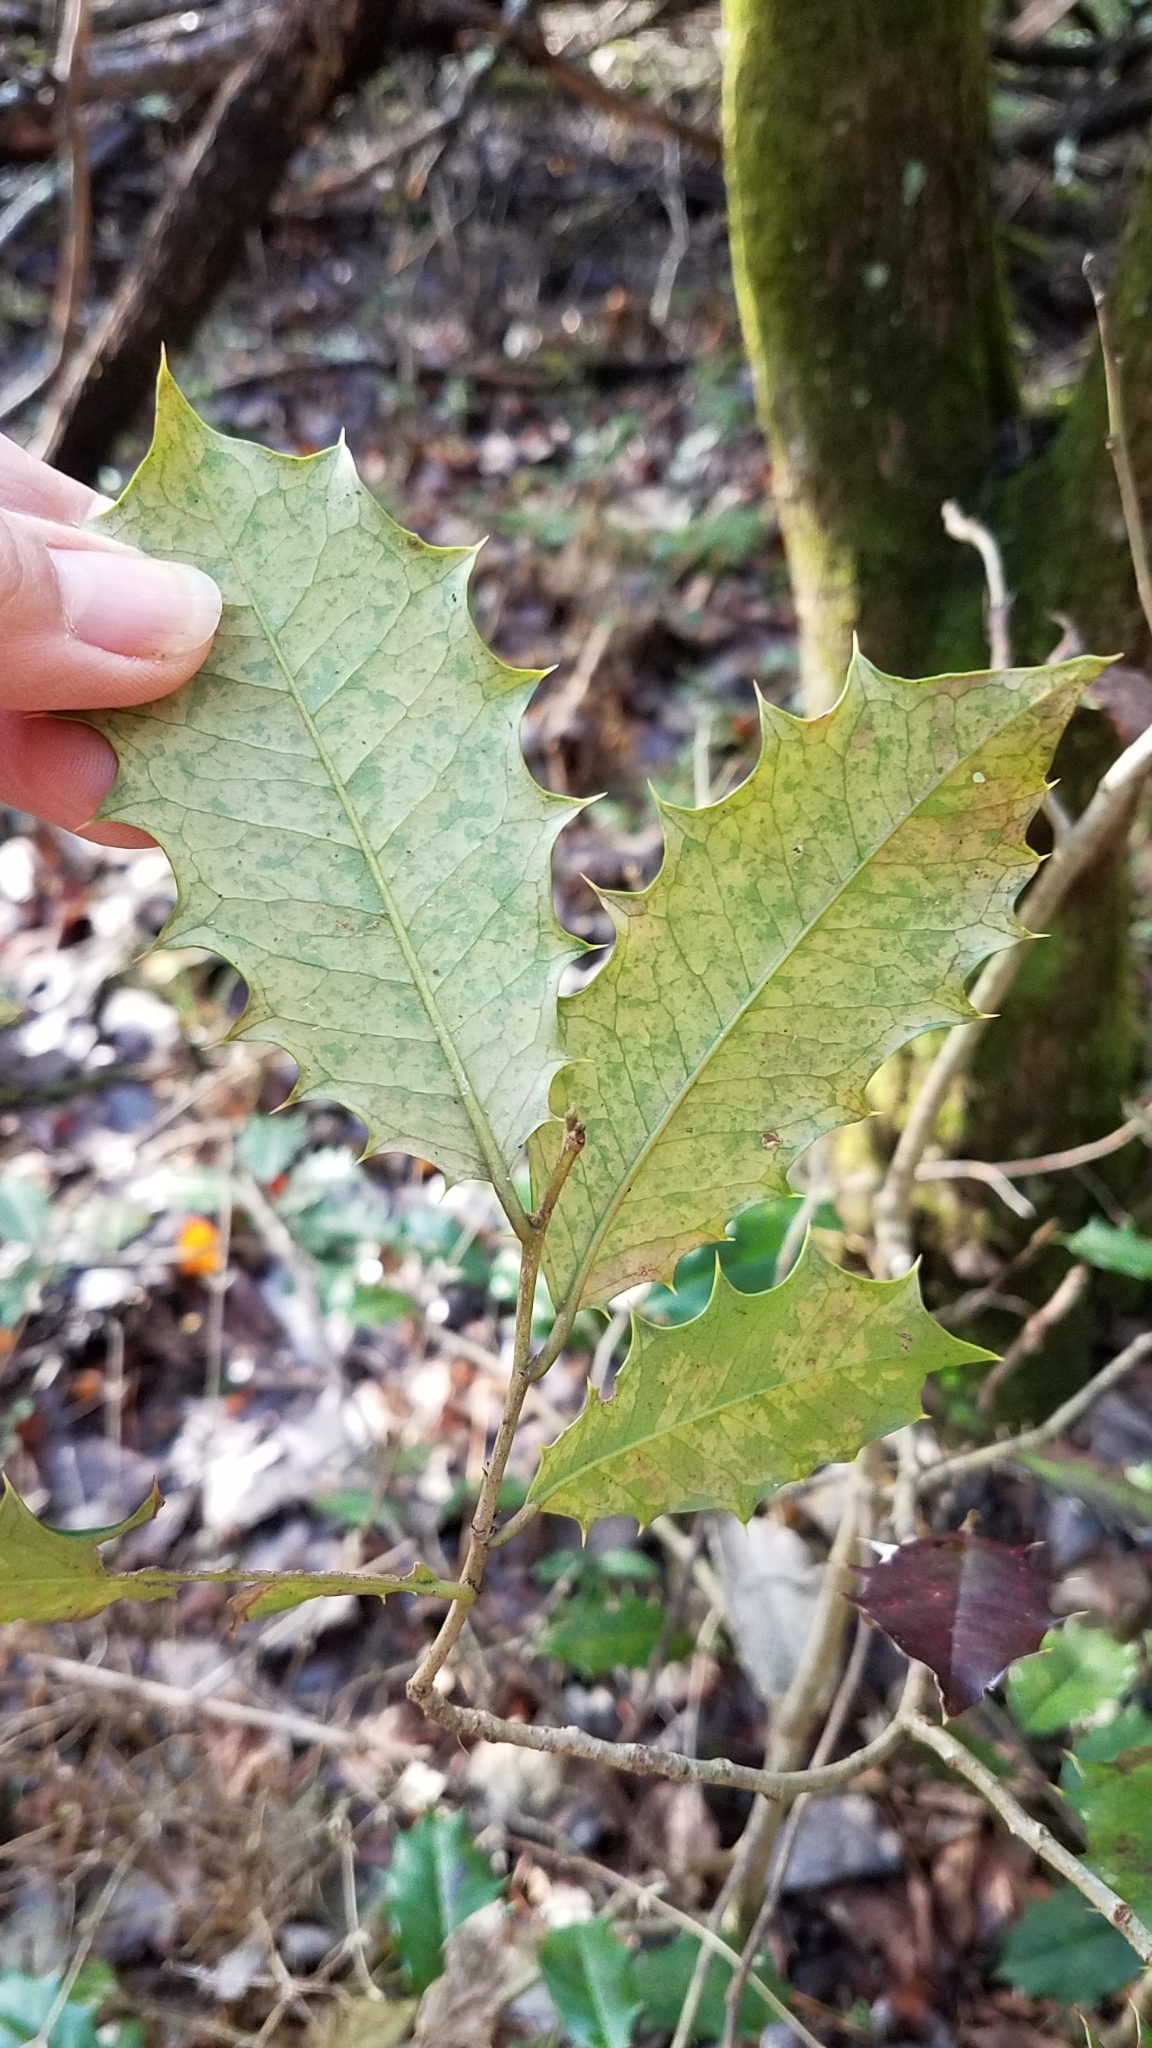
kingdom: Plantae
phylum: Tracheophyta
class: Magnoliopsida
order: Aquifoliales
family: Aquifoliaceae
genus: Ilex
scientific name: Ilex opaca
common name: American holly
